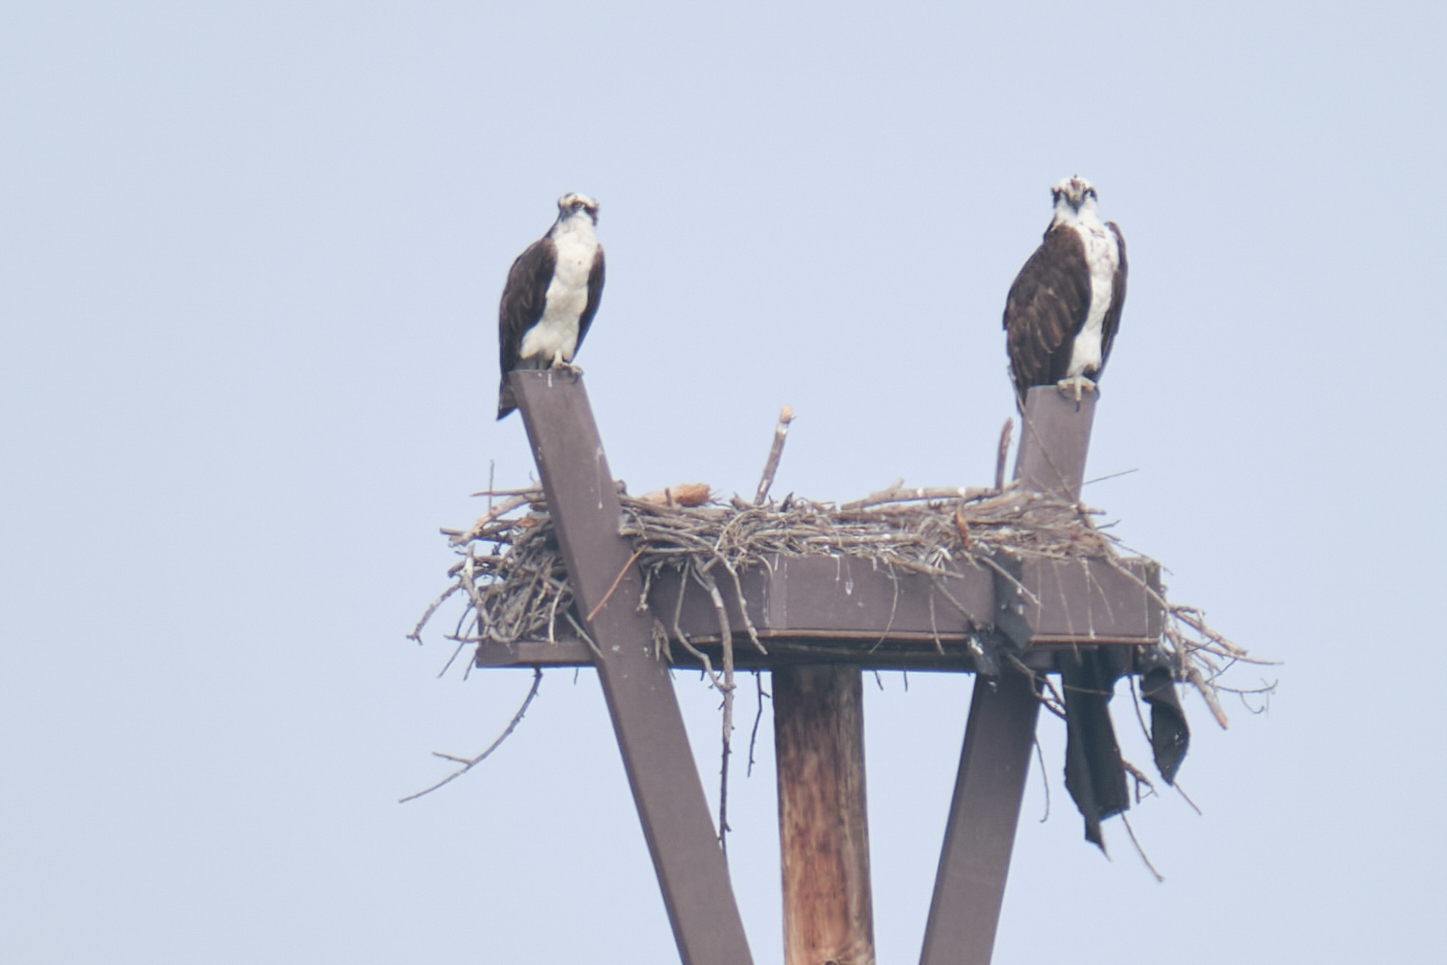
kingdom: Animalia
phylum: Chordata
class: Aves
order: Accipitriformes
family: Pandionidae
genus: Pandion
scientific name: Pandion haliaetus
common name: Osprey
